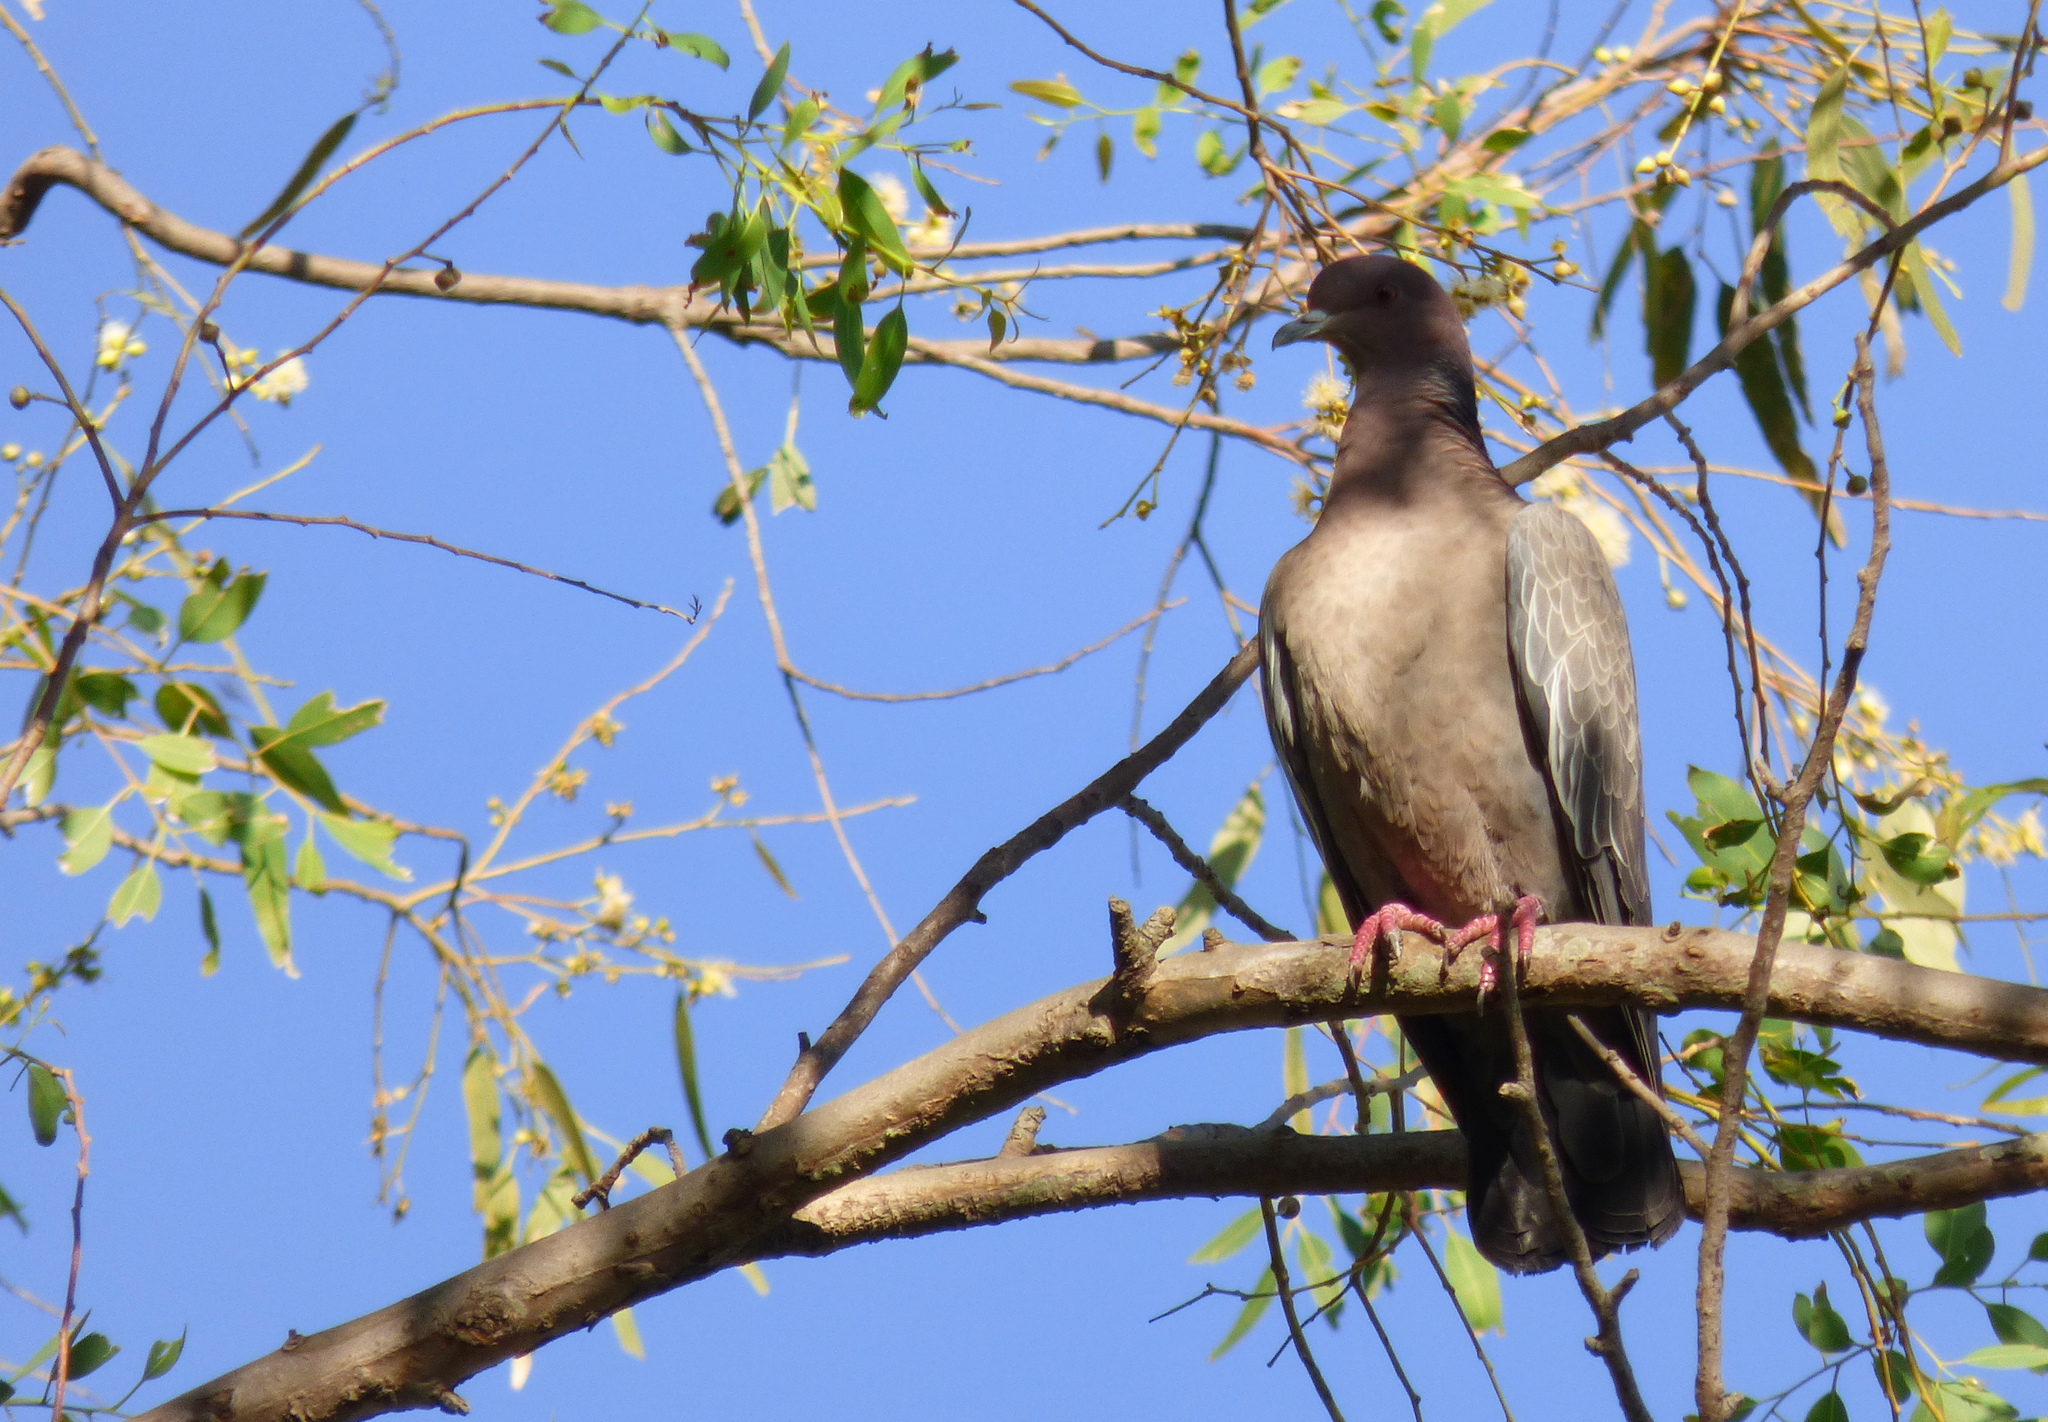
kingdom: Animalia
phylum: Chordata
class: Aves
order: Columbiformes
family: Columbidae
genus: Patagioenas
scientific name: Patagioenas picazuro
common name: Picazuro pigeon
